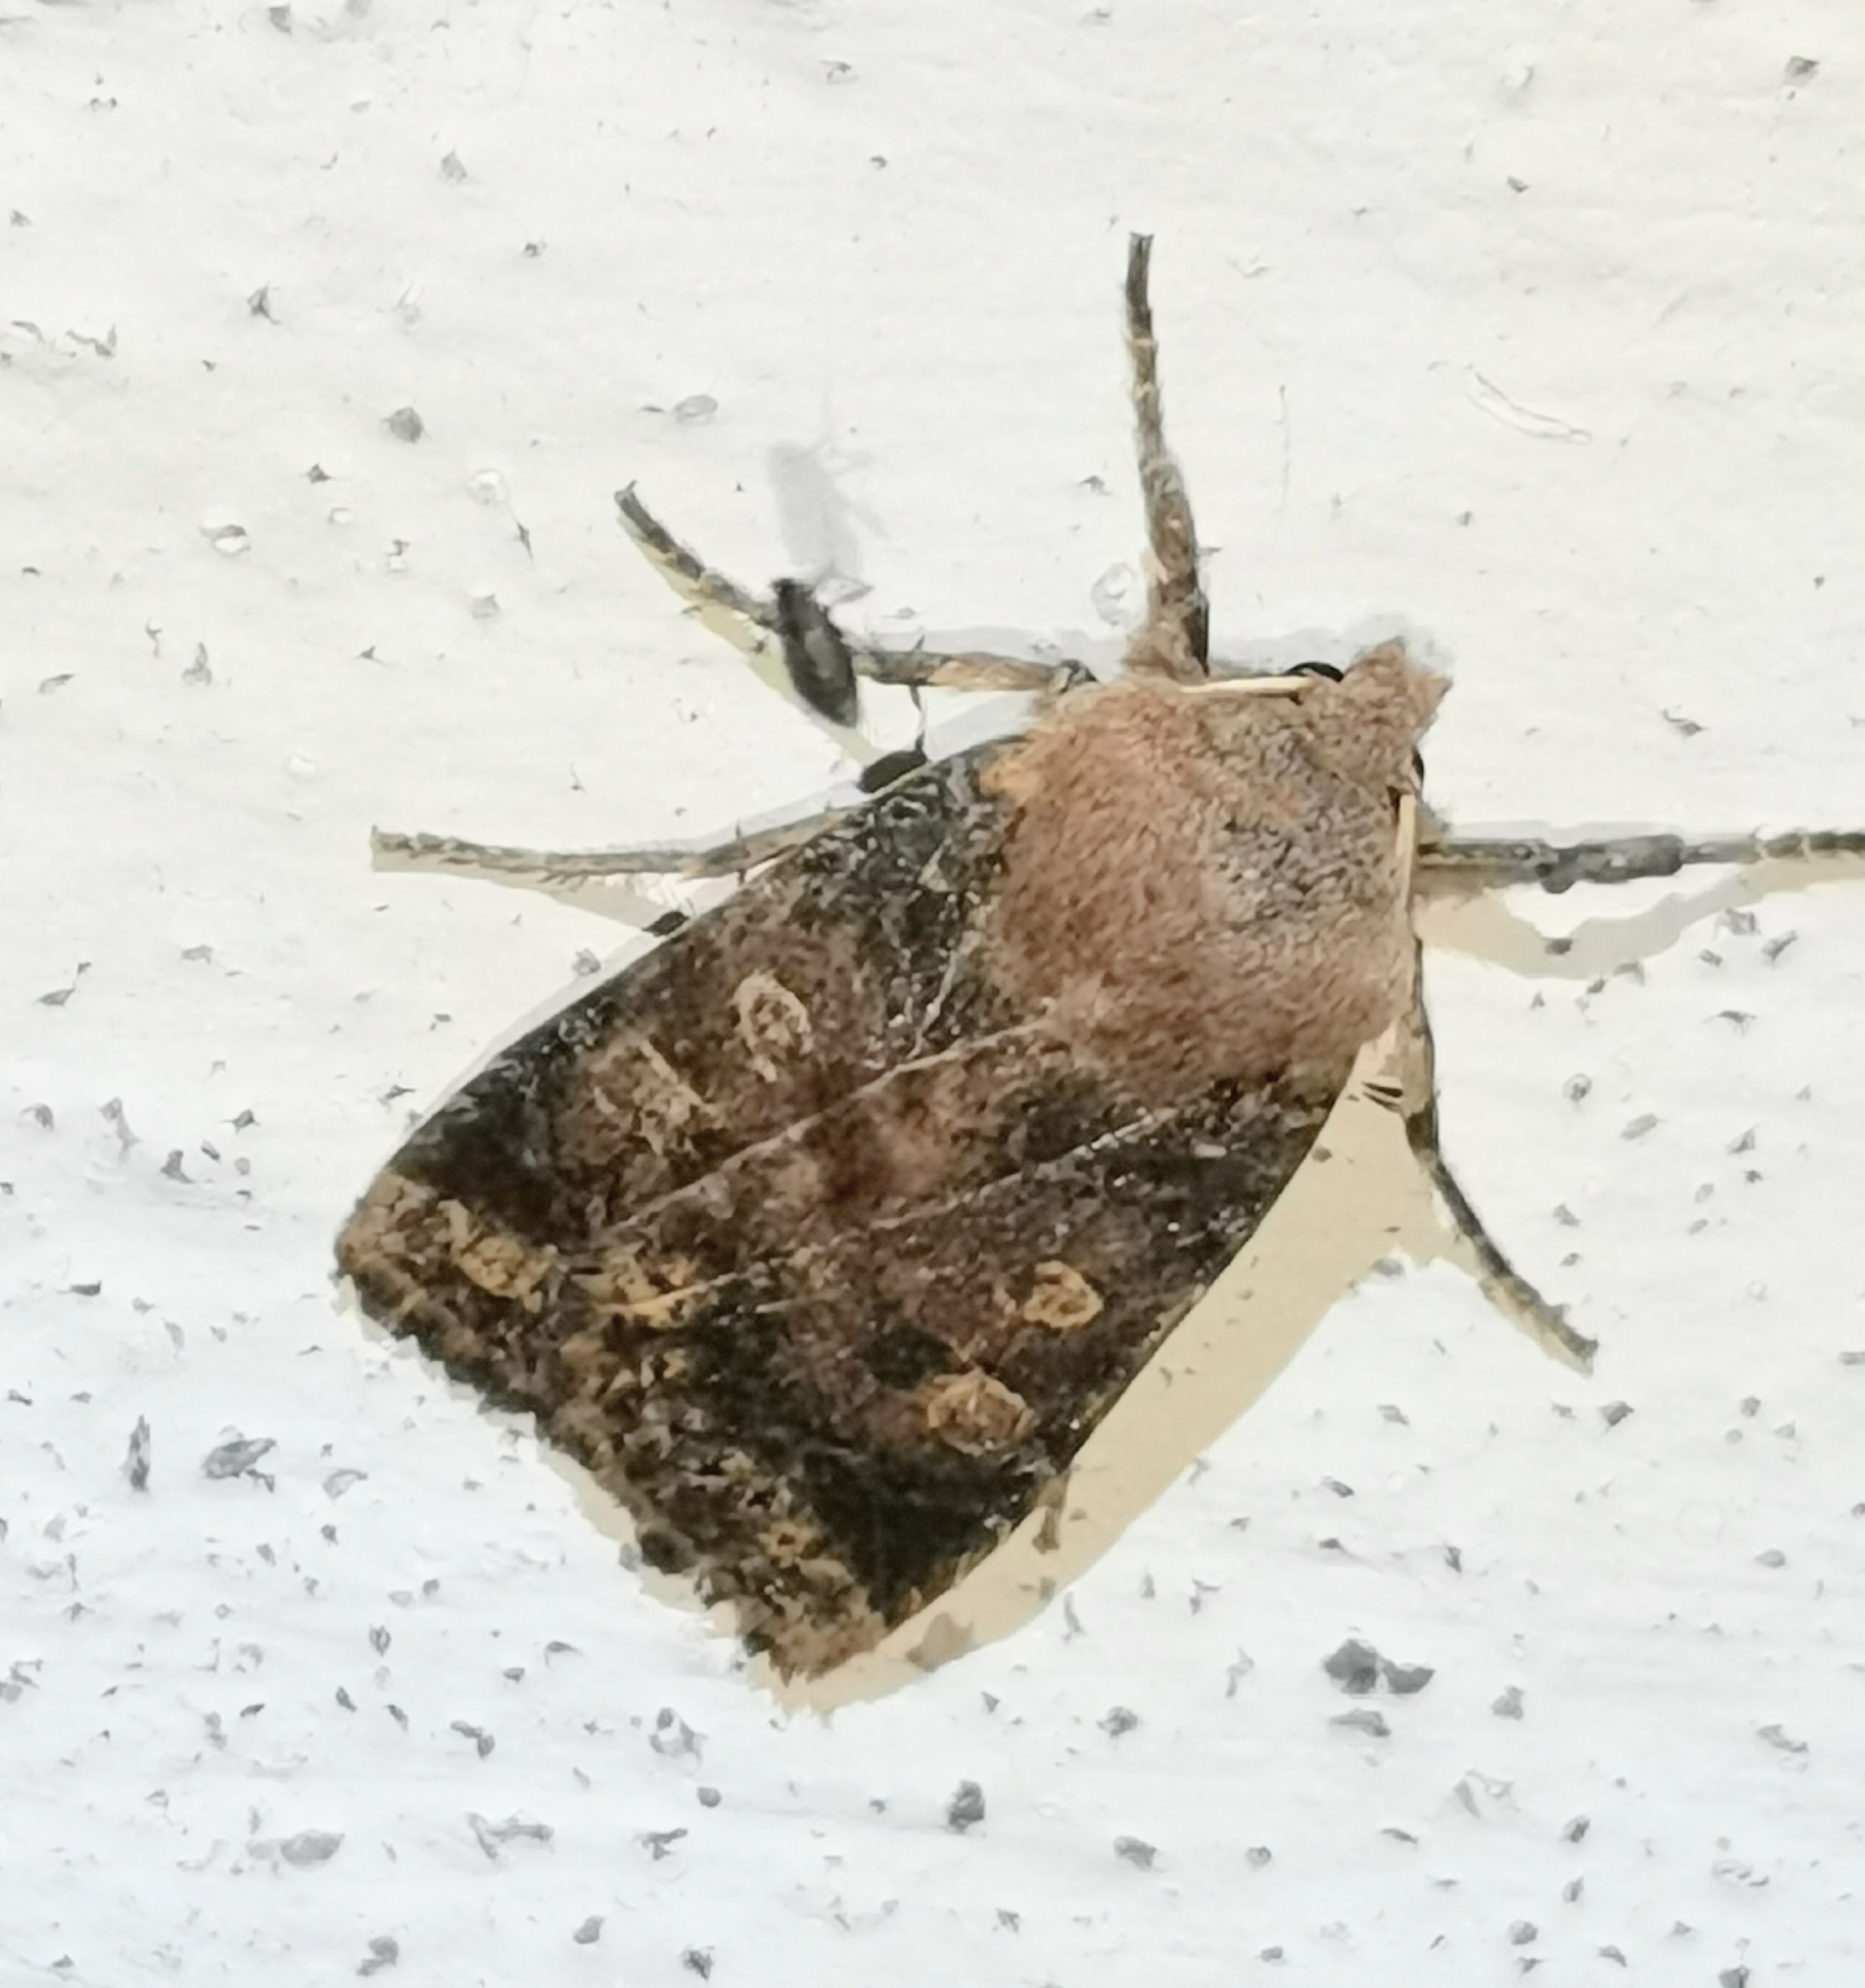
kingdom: Animalia
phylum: Arthropoda
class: Insecta
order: Lepidoptera
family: Noctuidae
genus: Conistra
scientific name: Conistra vaccinii
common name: Chestnut
